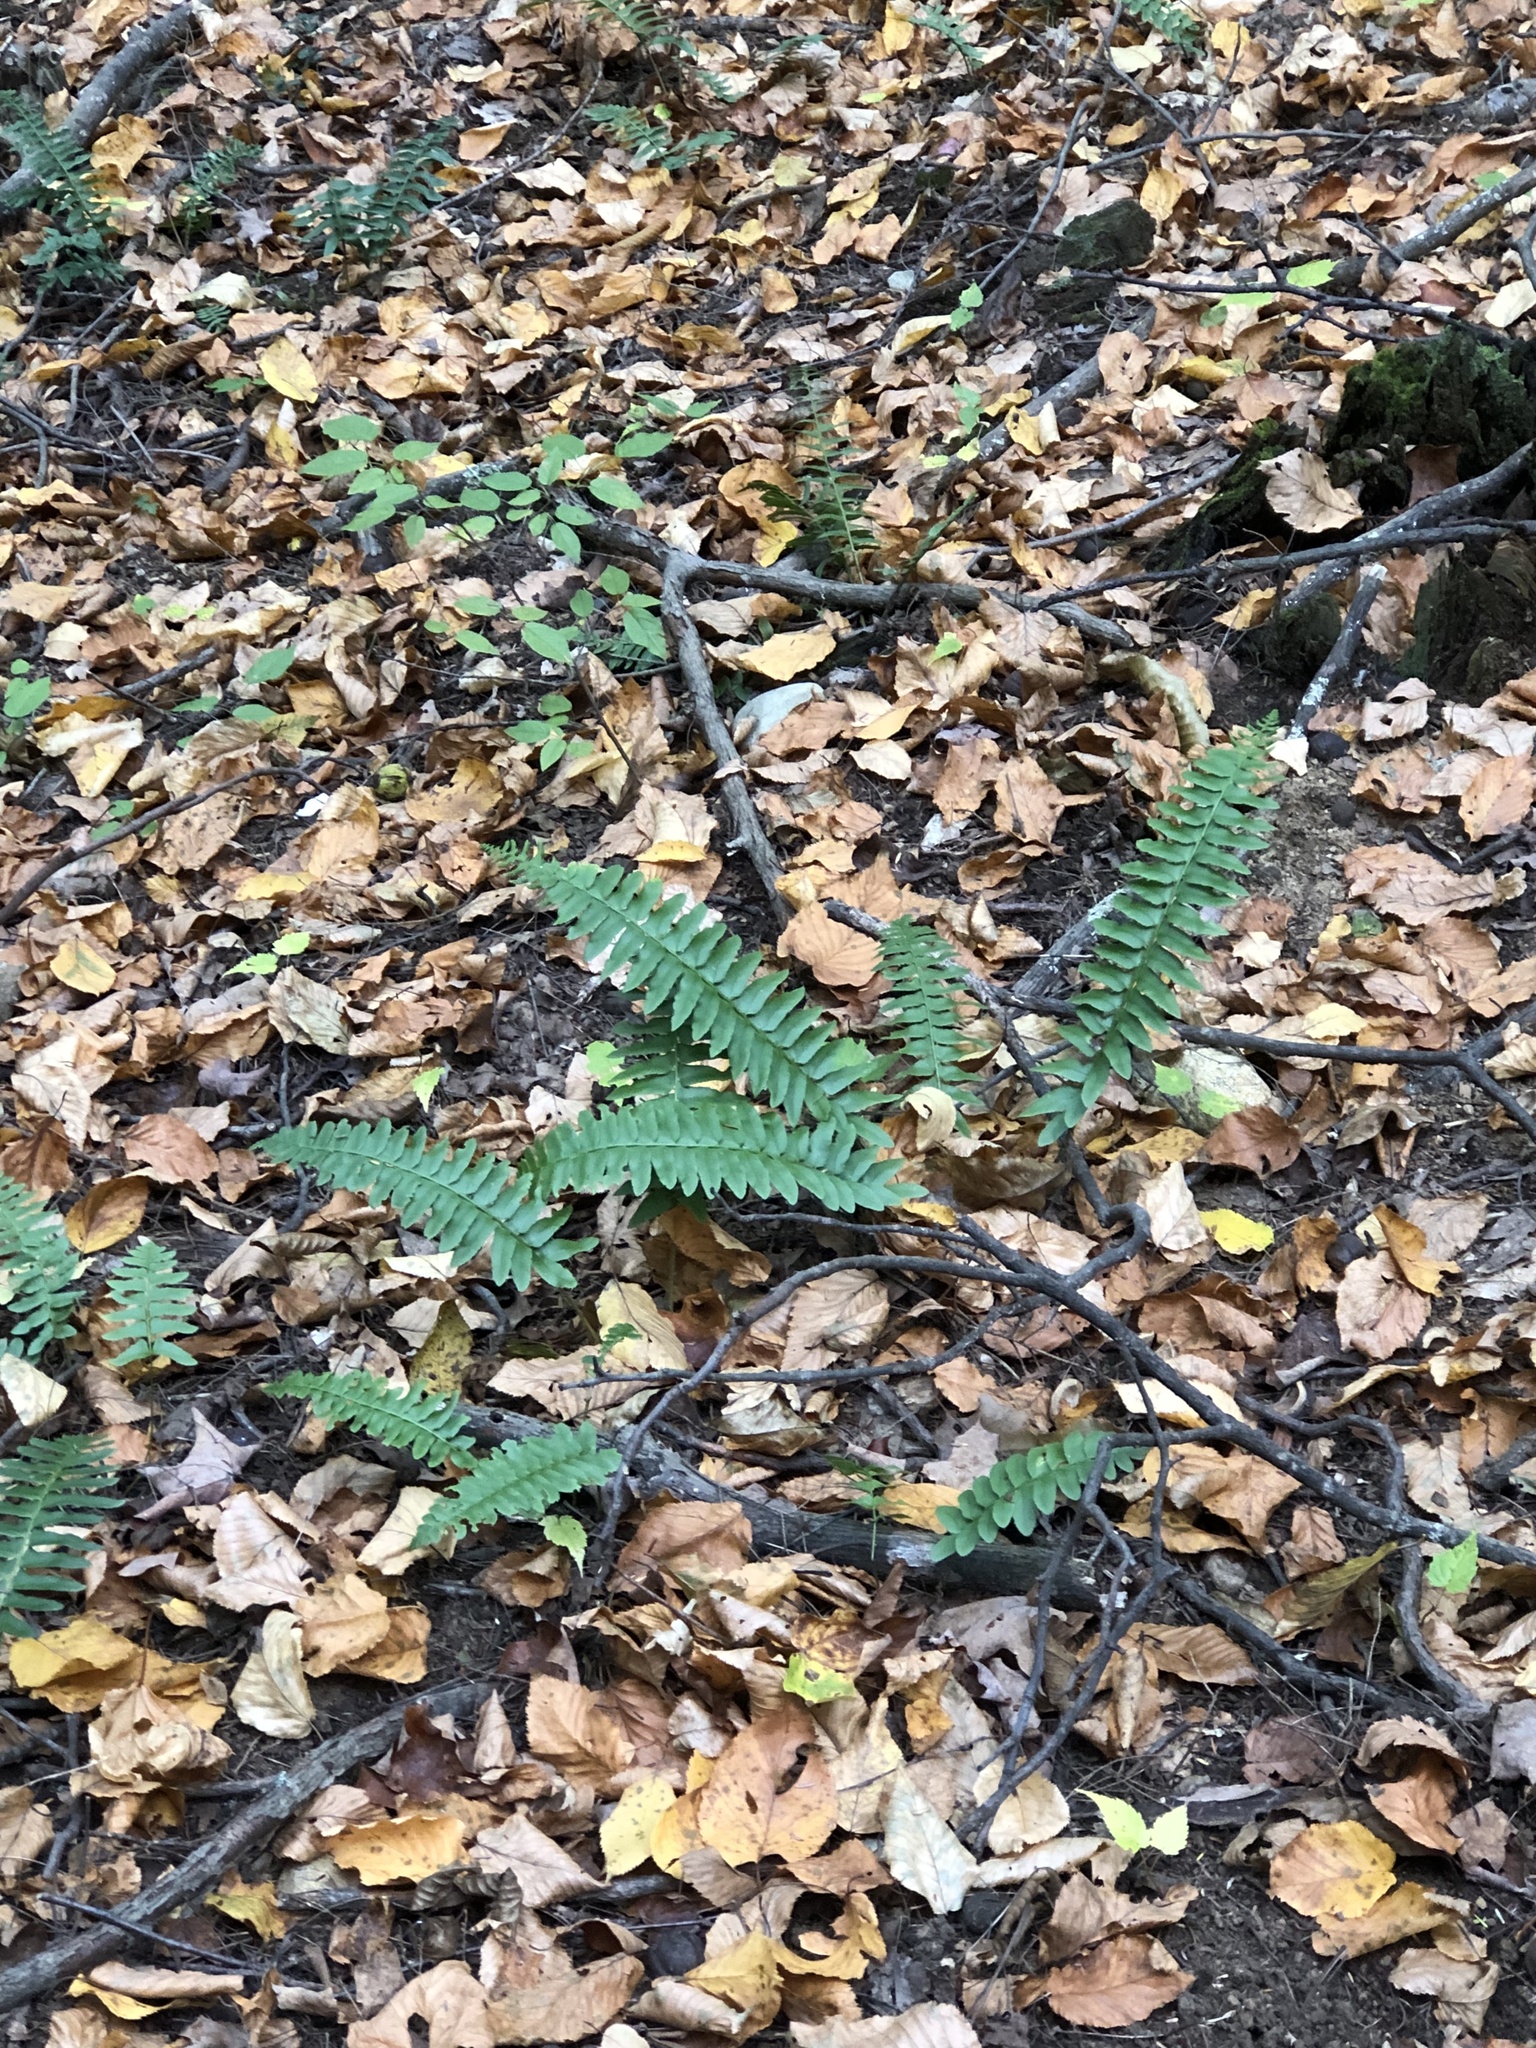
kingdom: Plantae
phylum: Tracheophyta
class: Polypodiopsida
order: Polypodiales
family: Dryopteridaceae
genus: Polystichum
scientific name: Polystichum acrostichoides
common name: Christmas fern
